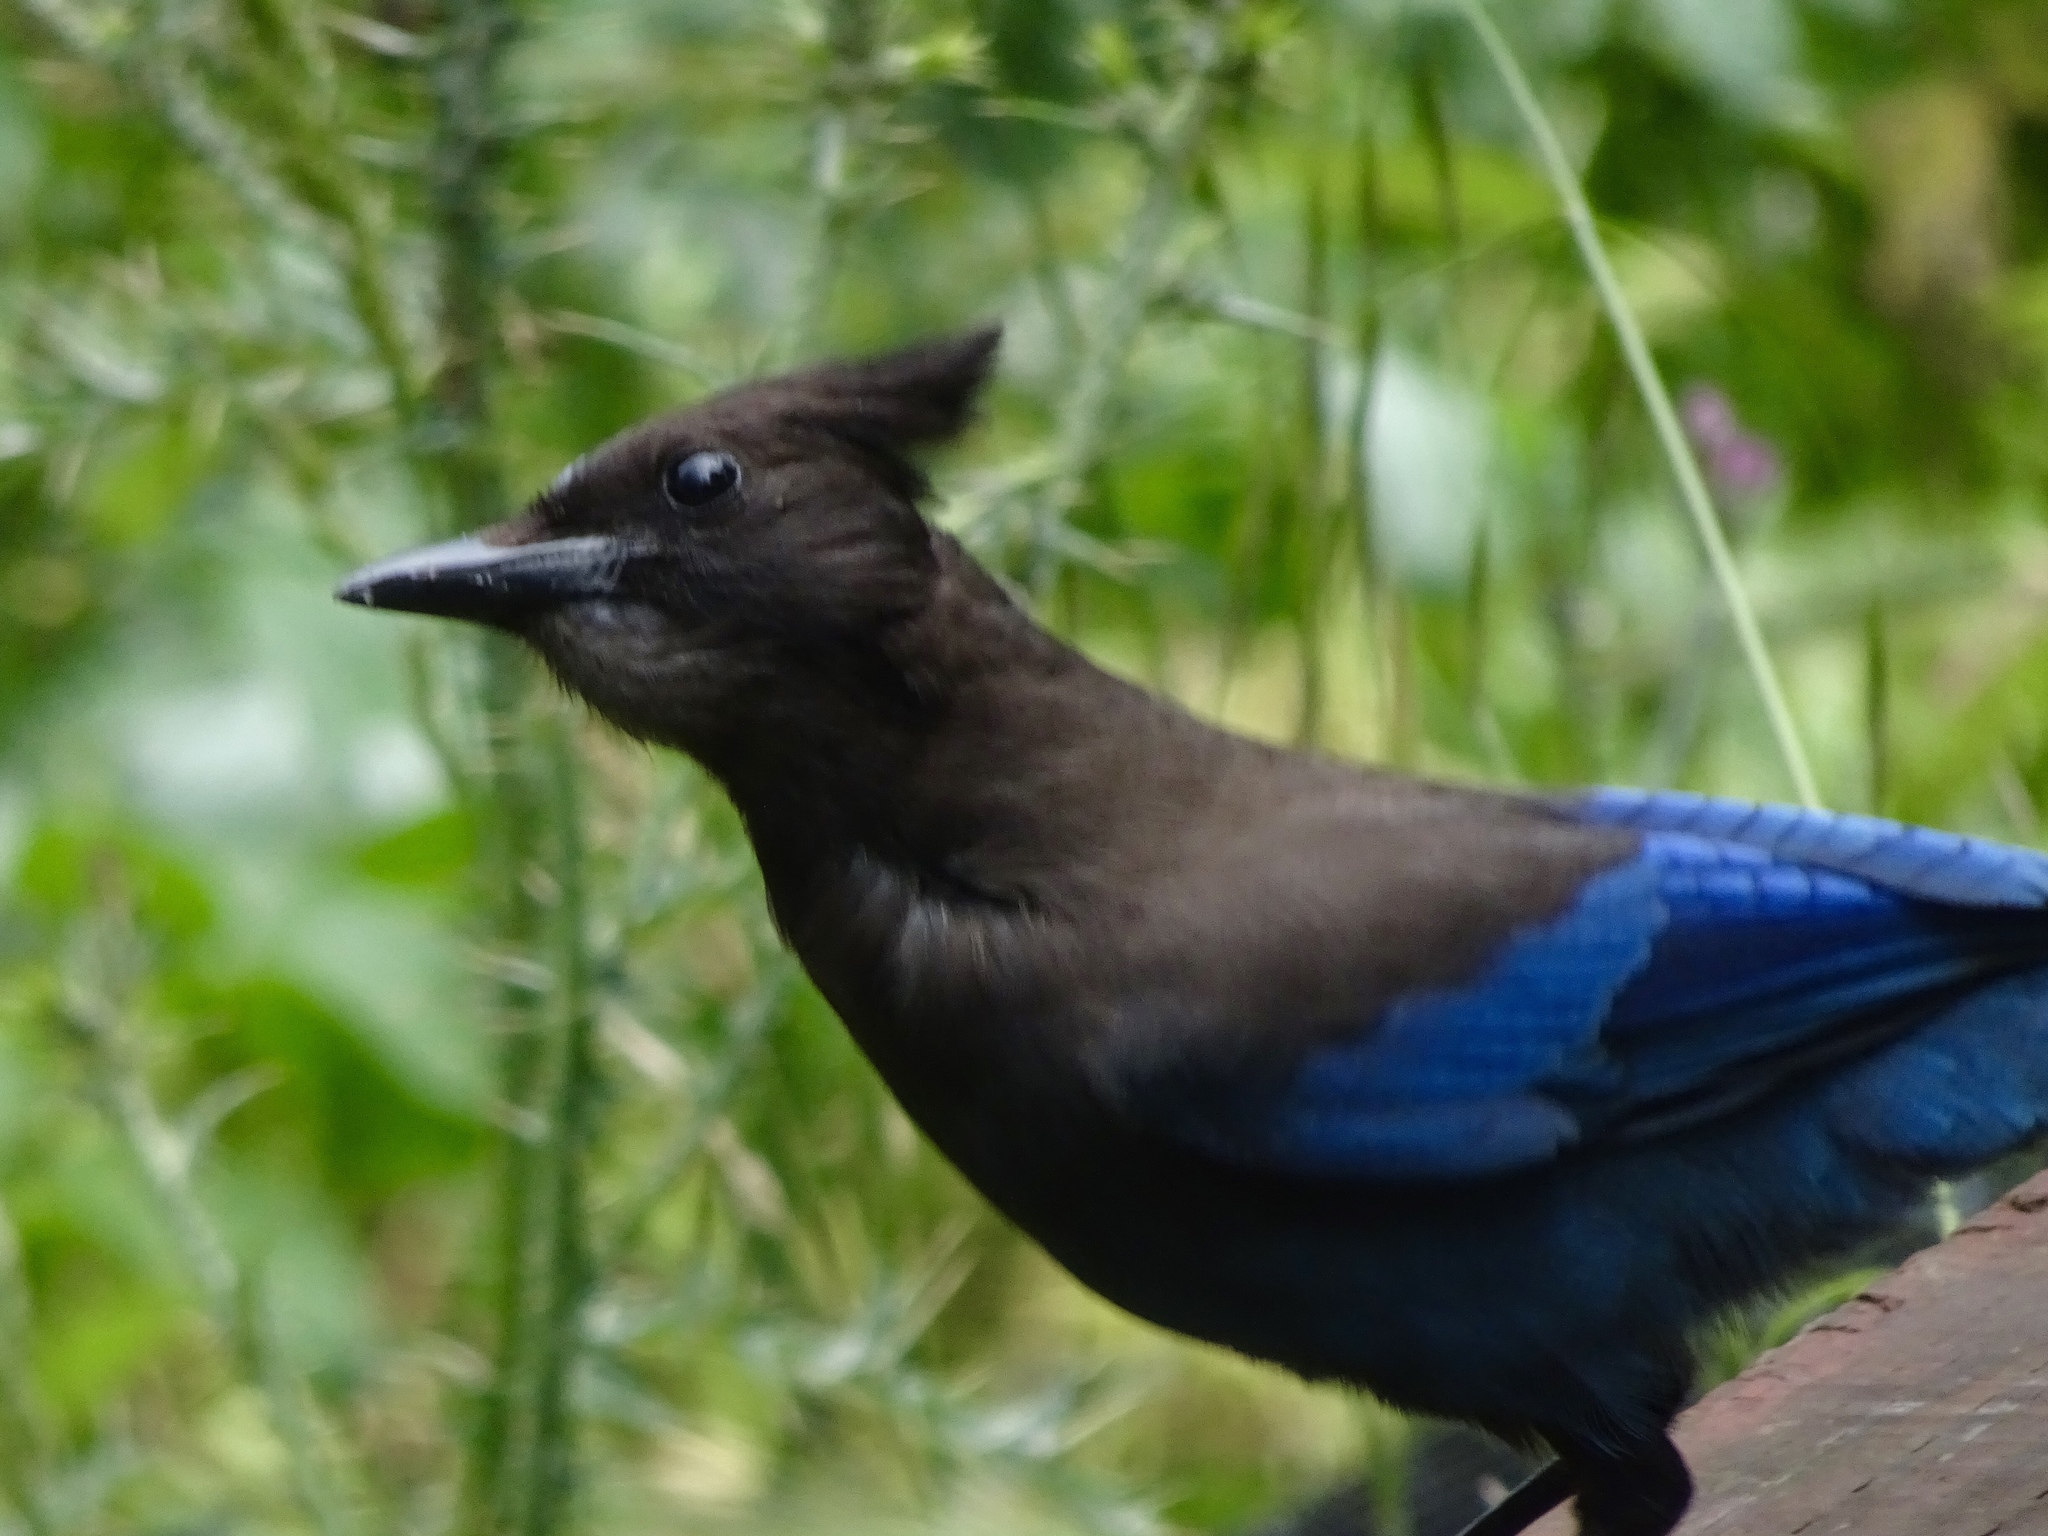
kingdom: Animalia
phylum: Chordata
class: Aves
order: Passeriformes
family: Corvidae
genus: Cyanocitta
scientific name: Cyanocitta stelleri
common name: Steller's jay
